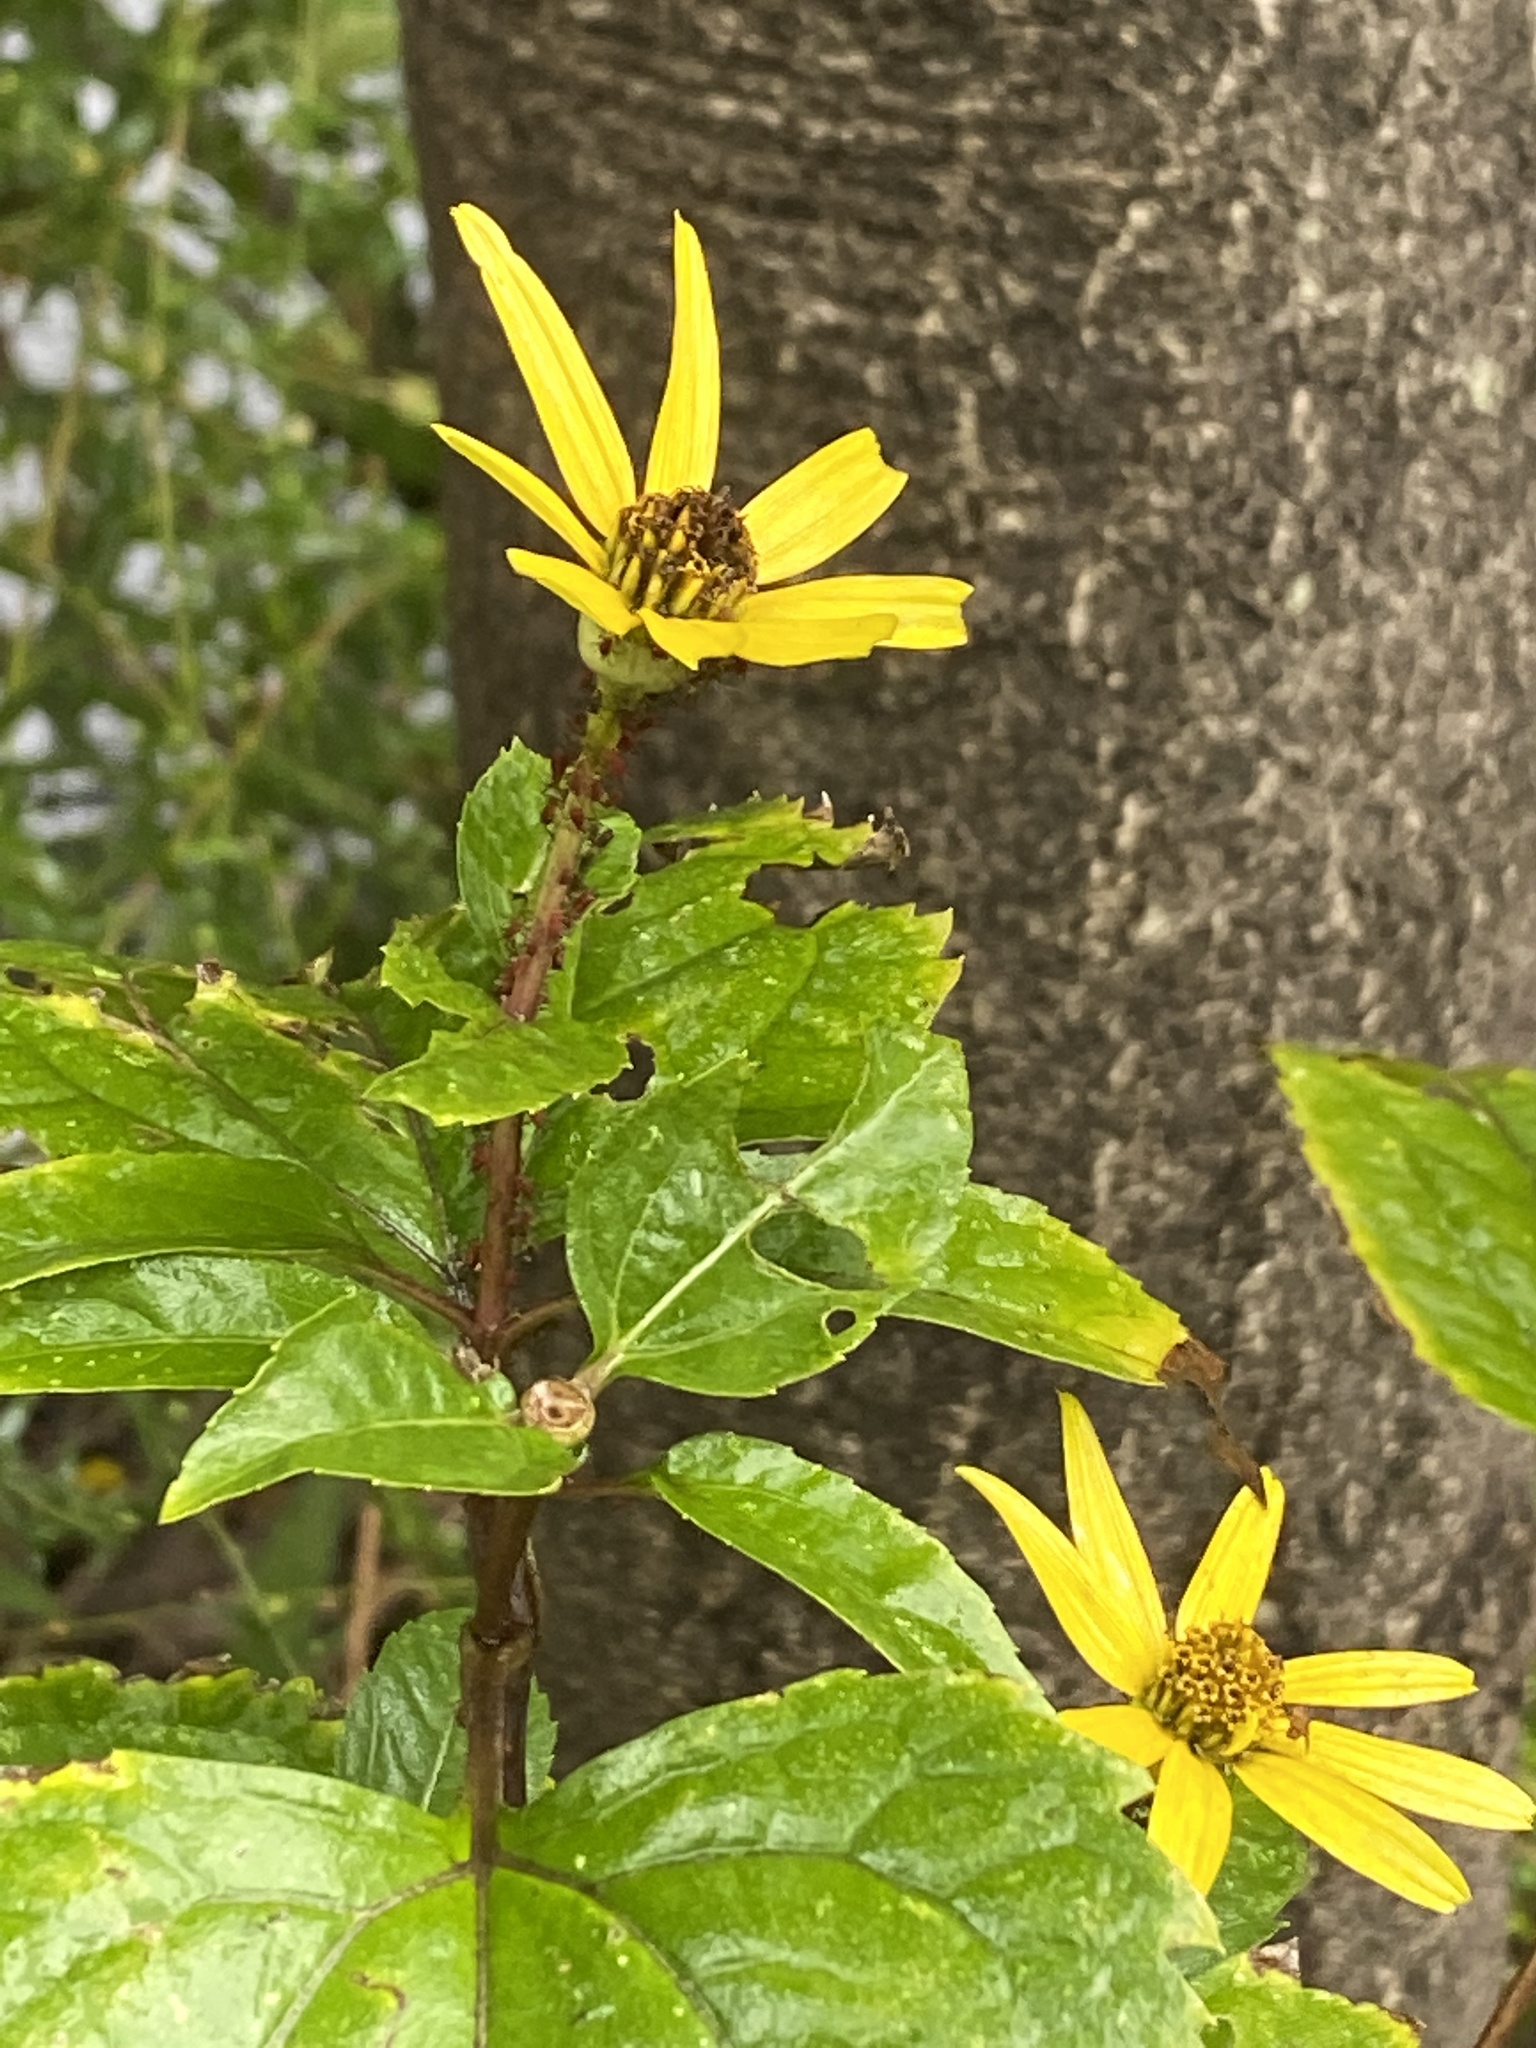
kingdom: Plantae
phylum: Tracheophyta
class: Magnoliopsida
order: Asterales
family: Asteraceae
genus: Heliopsis
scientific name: Heliopsis helianthoides
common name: False sunflower
